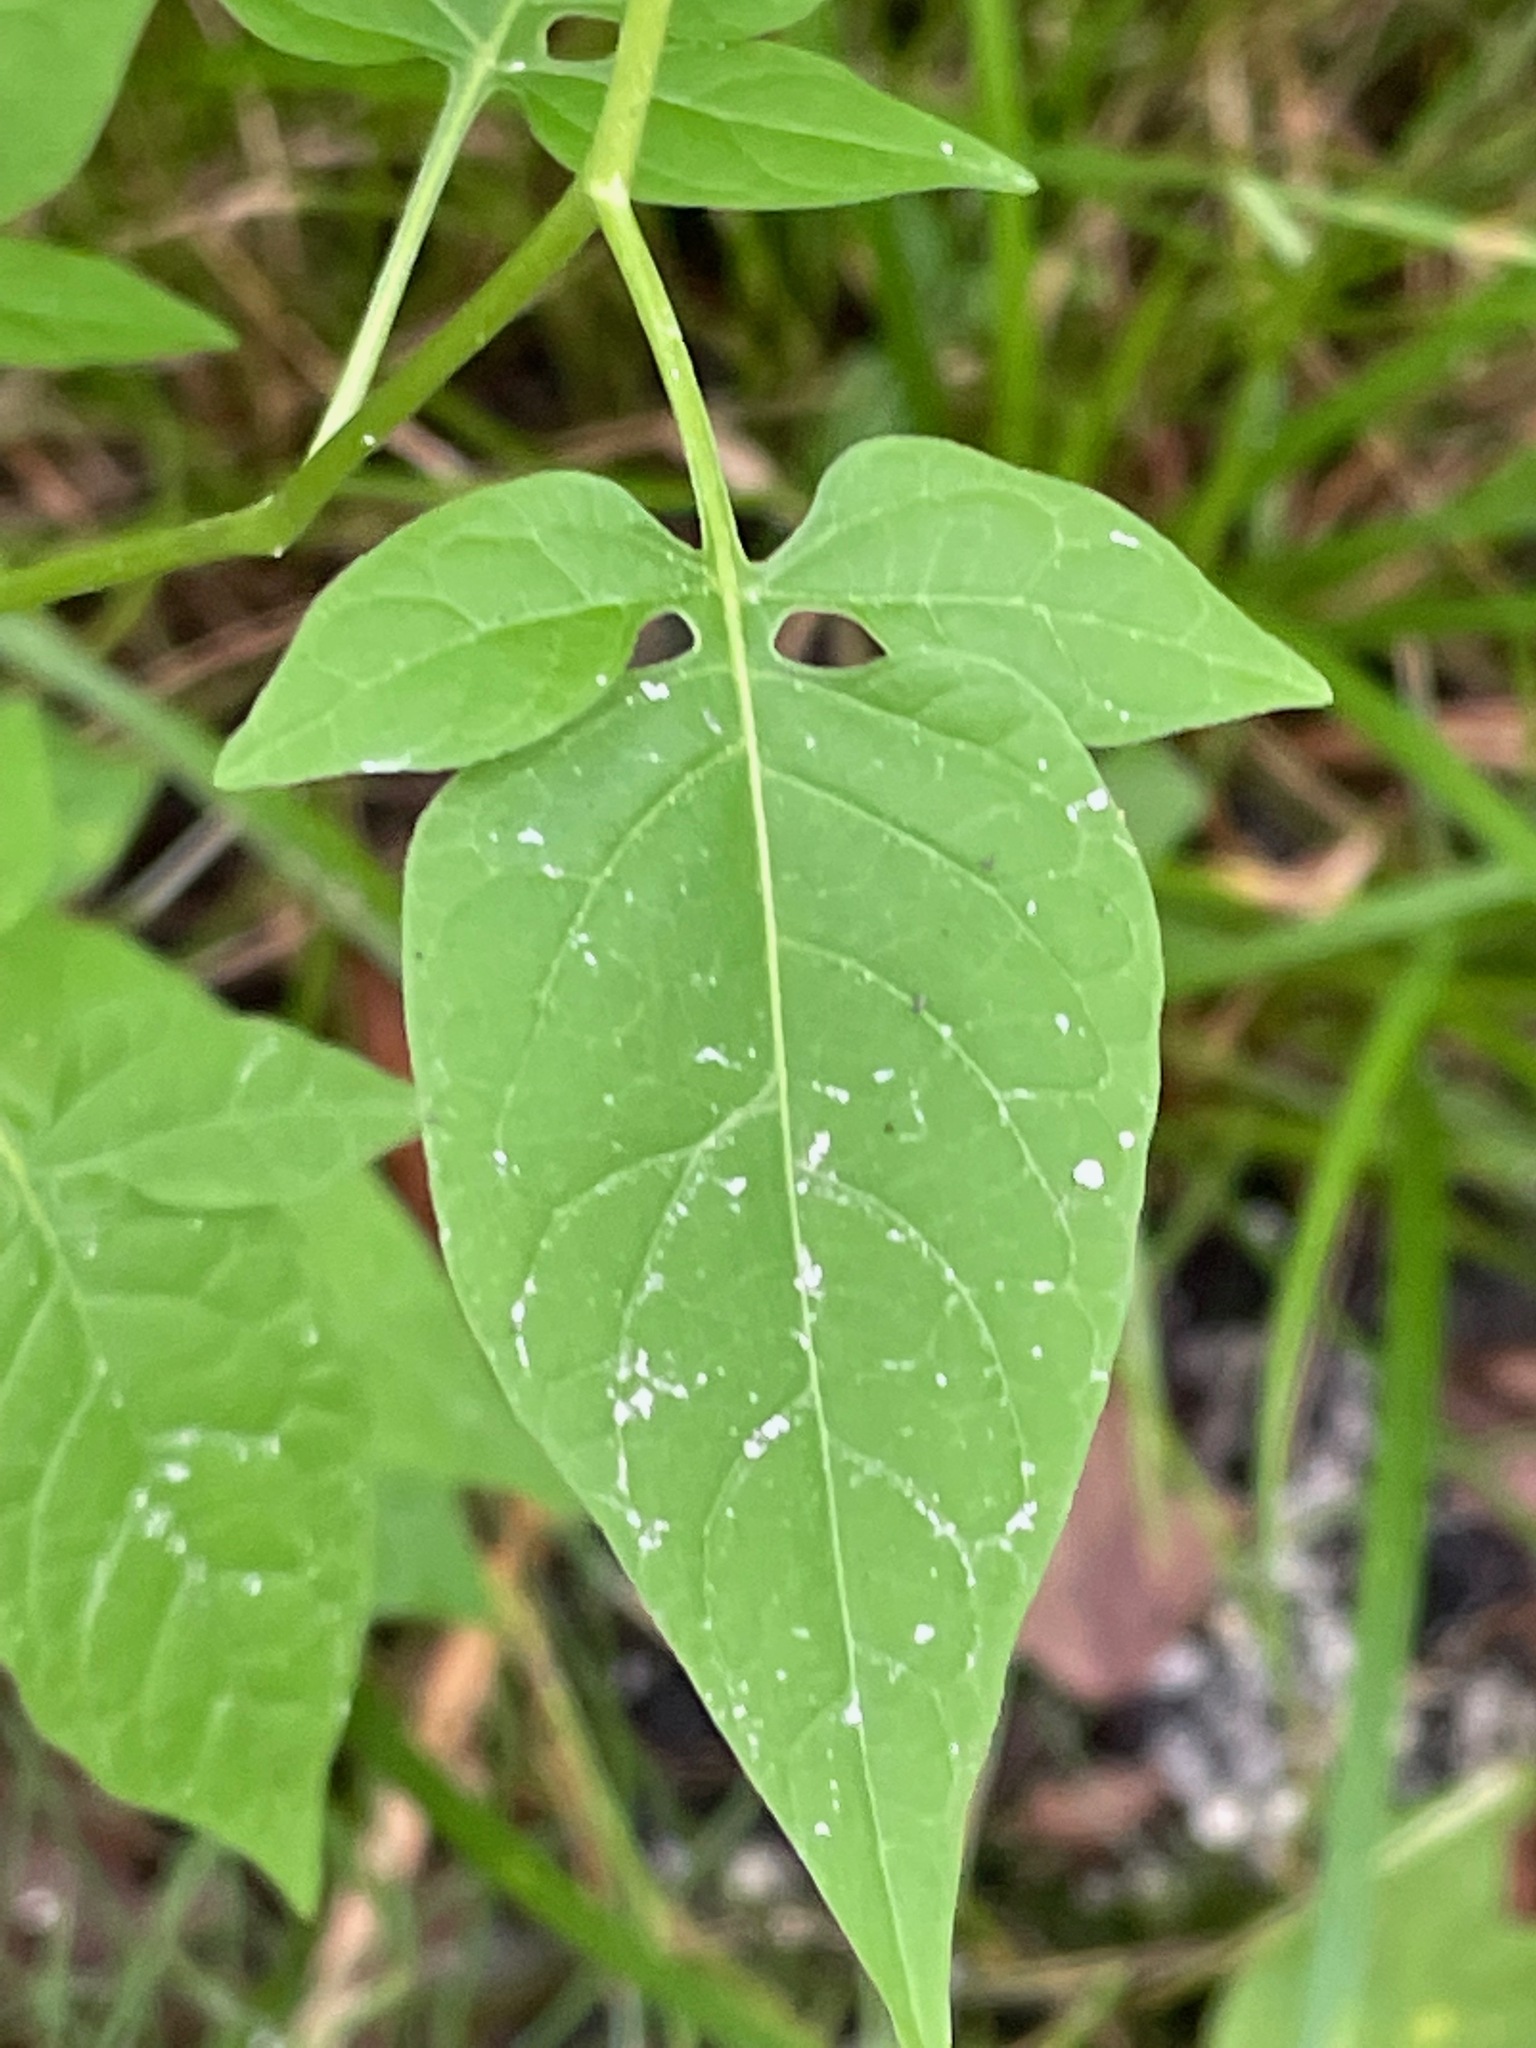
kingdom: Plantae
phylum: Tracheophyta
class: Magnoliopsida
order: Solanales
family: Solanaceae
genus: Solanum
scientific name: Solanum dulcamara
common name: Climbing nightshade
